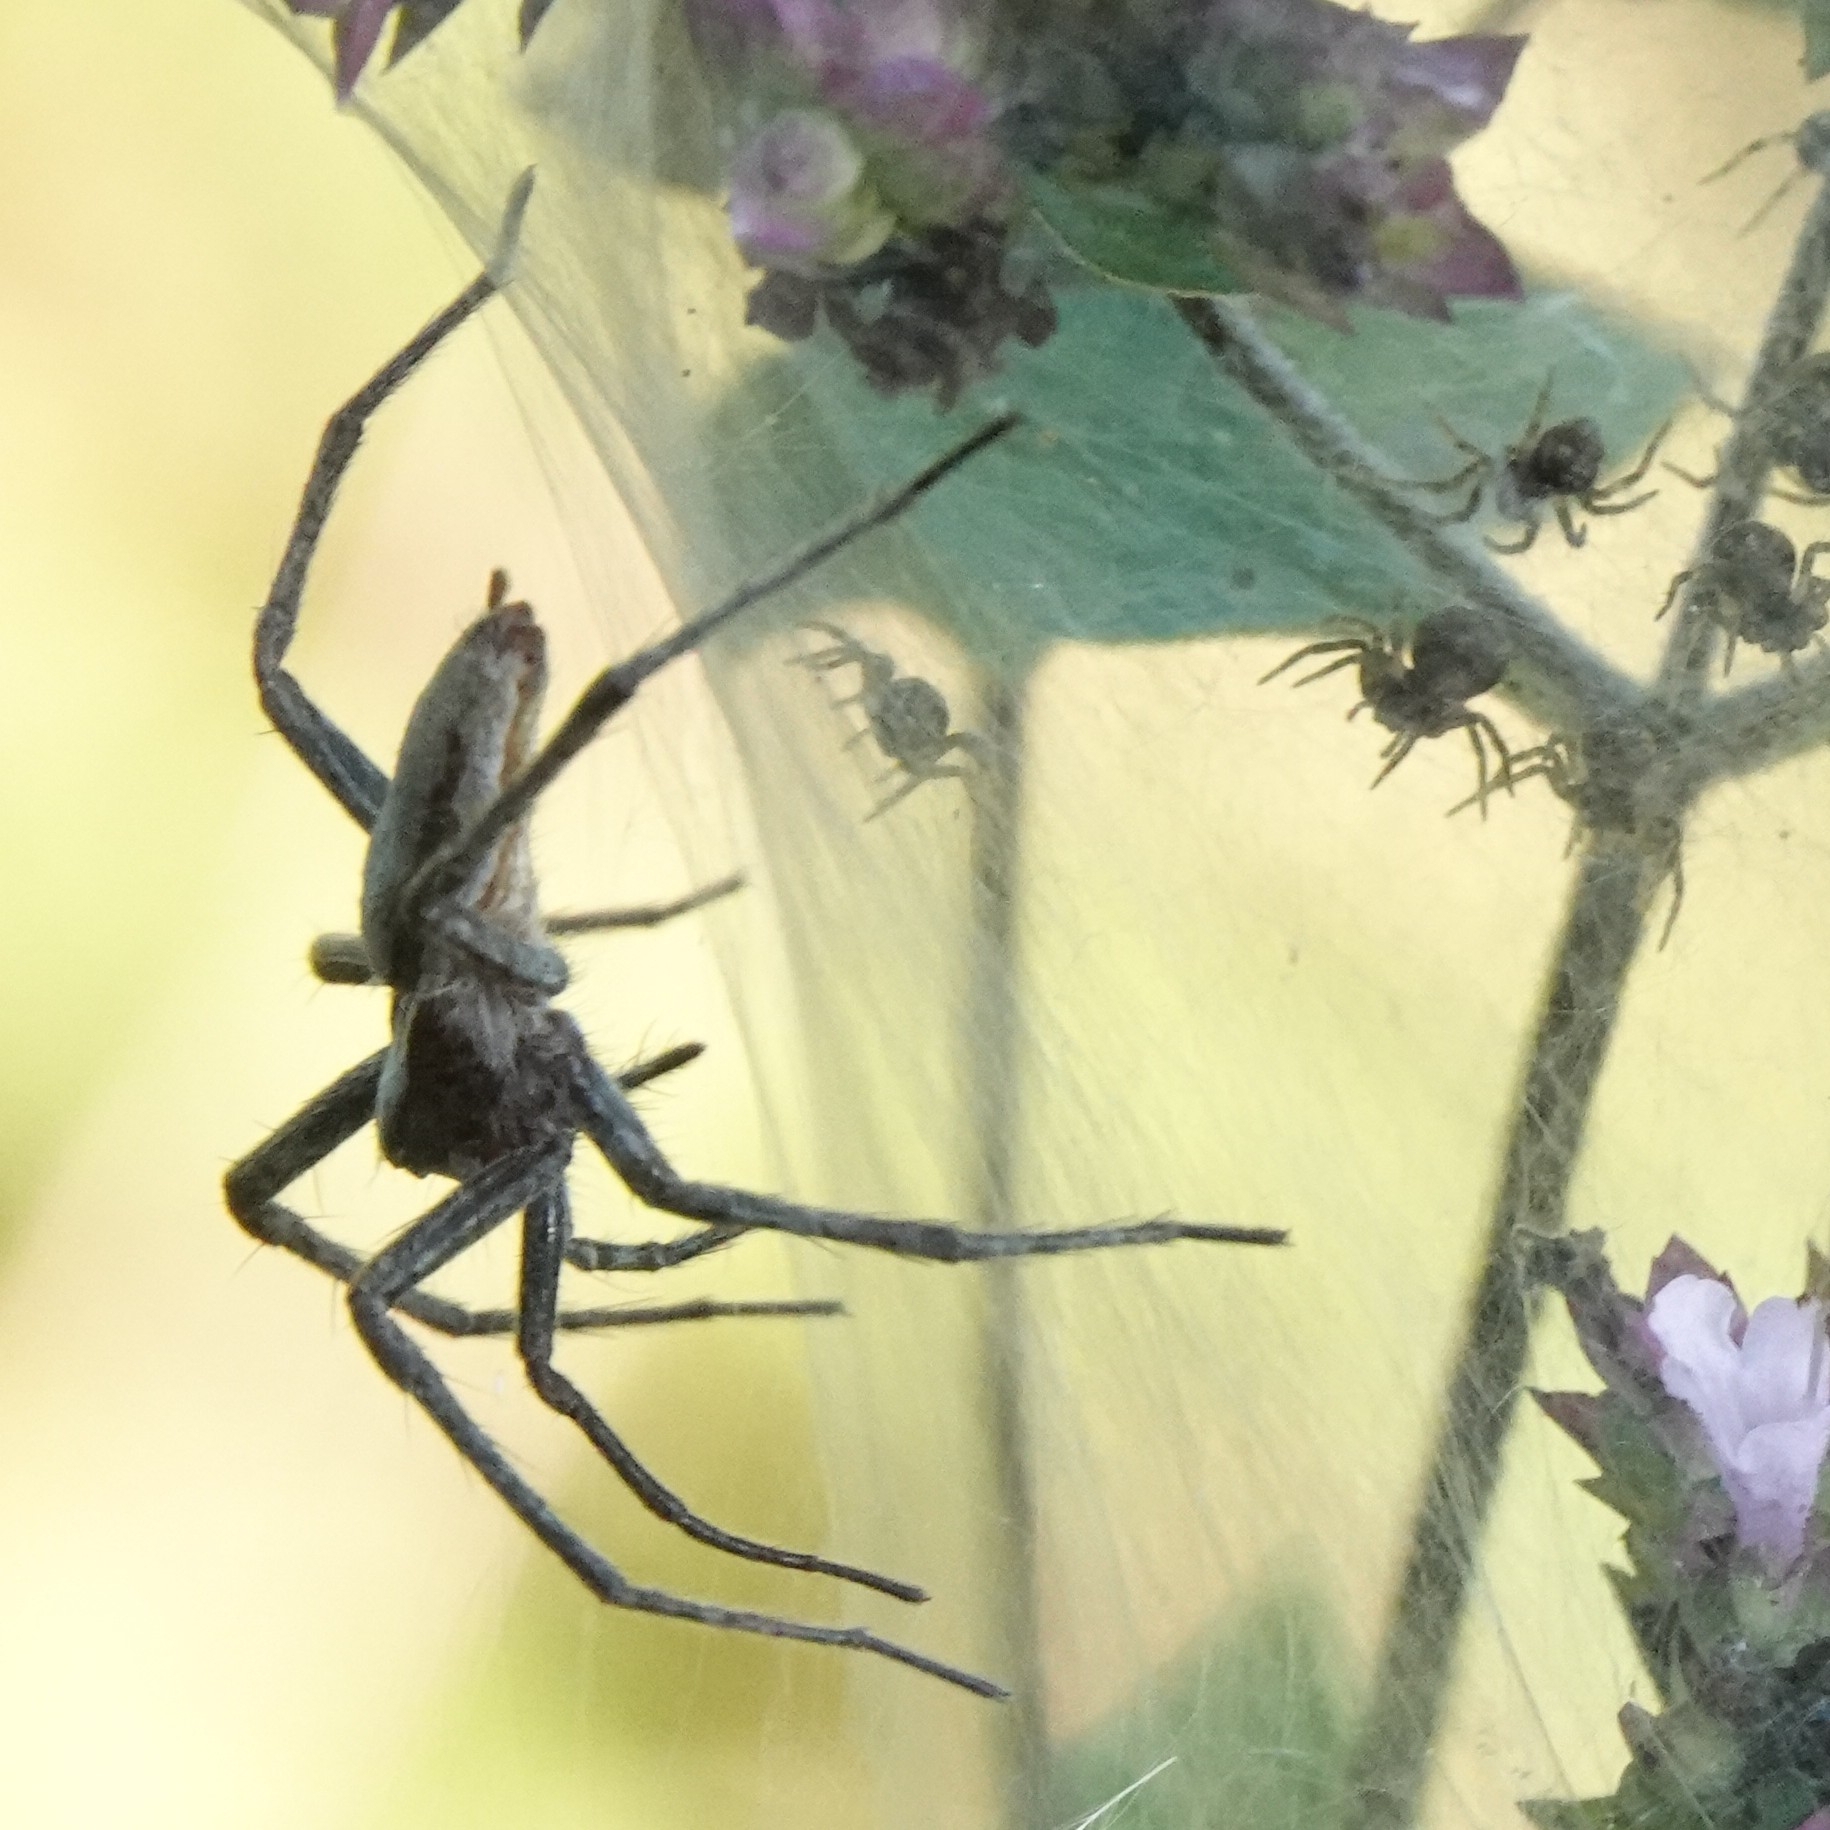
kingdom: Animalia
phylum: Arthropoda
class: Arachnida
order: Araneae
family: Pisauridae
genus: Pisaura
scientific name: Pisaura mirabilis
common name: Tent spider
